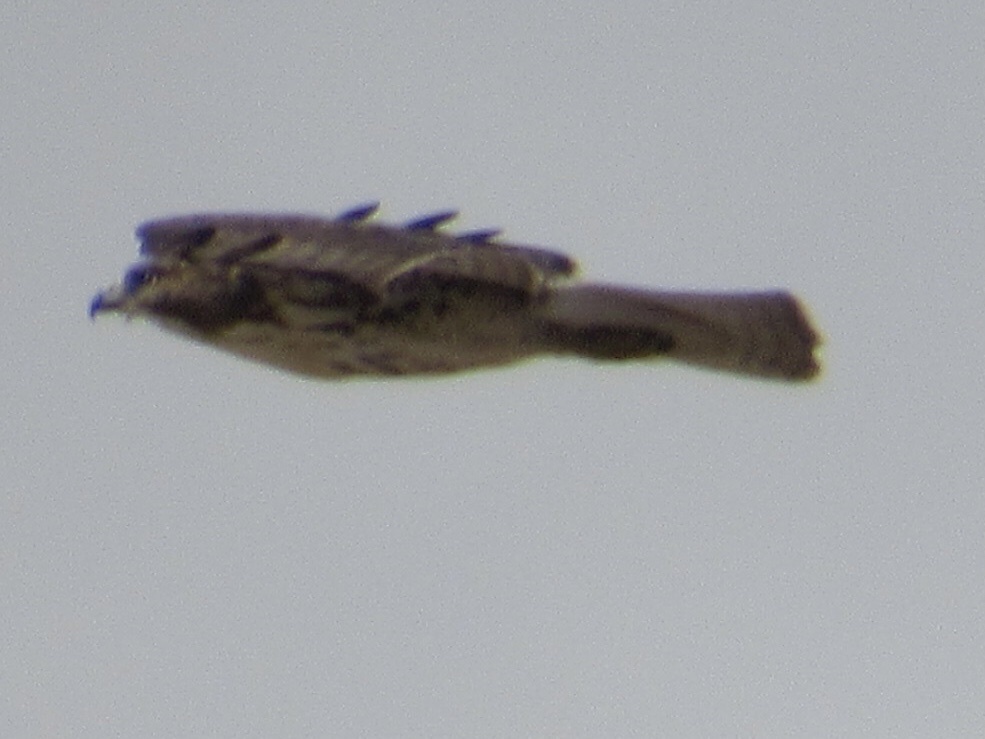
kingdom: Animalia
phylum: Chordata
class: Aves
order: Accipitriformes
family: Accipitridae
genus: Buteo
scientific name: Buteo jamaicensis
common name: Red-tailed hawk
